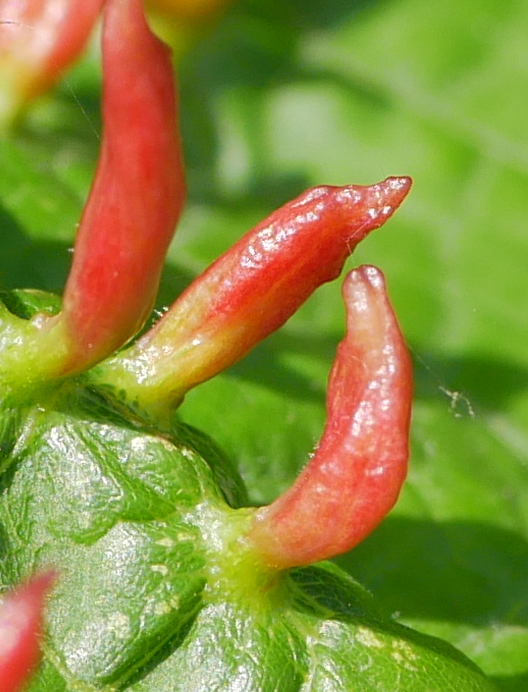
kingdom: Animalia
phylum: Arthropoda
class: Arachnida
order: Trombidiformes
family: Eriophyidae
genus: Eriophyes
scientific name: Eriophyes tiliae
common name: Red nail gall mite
